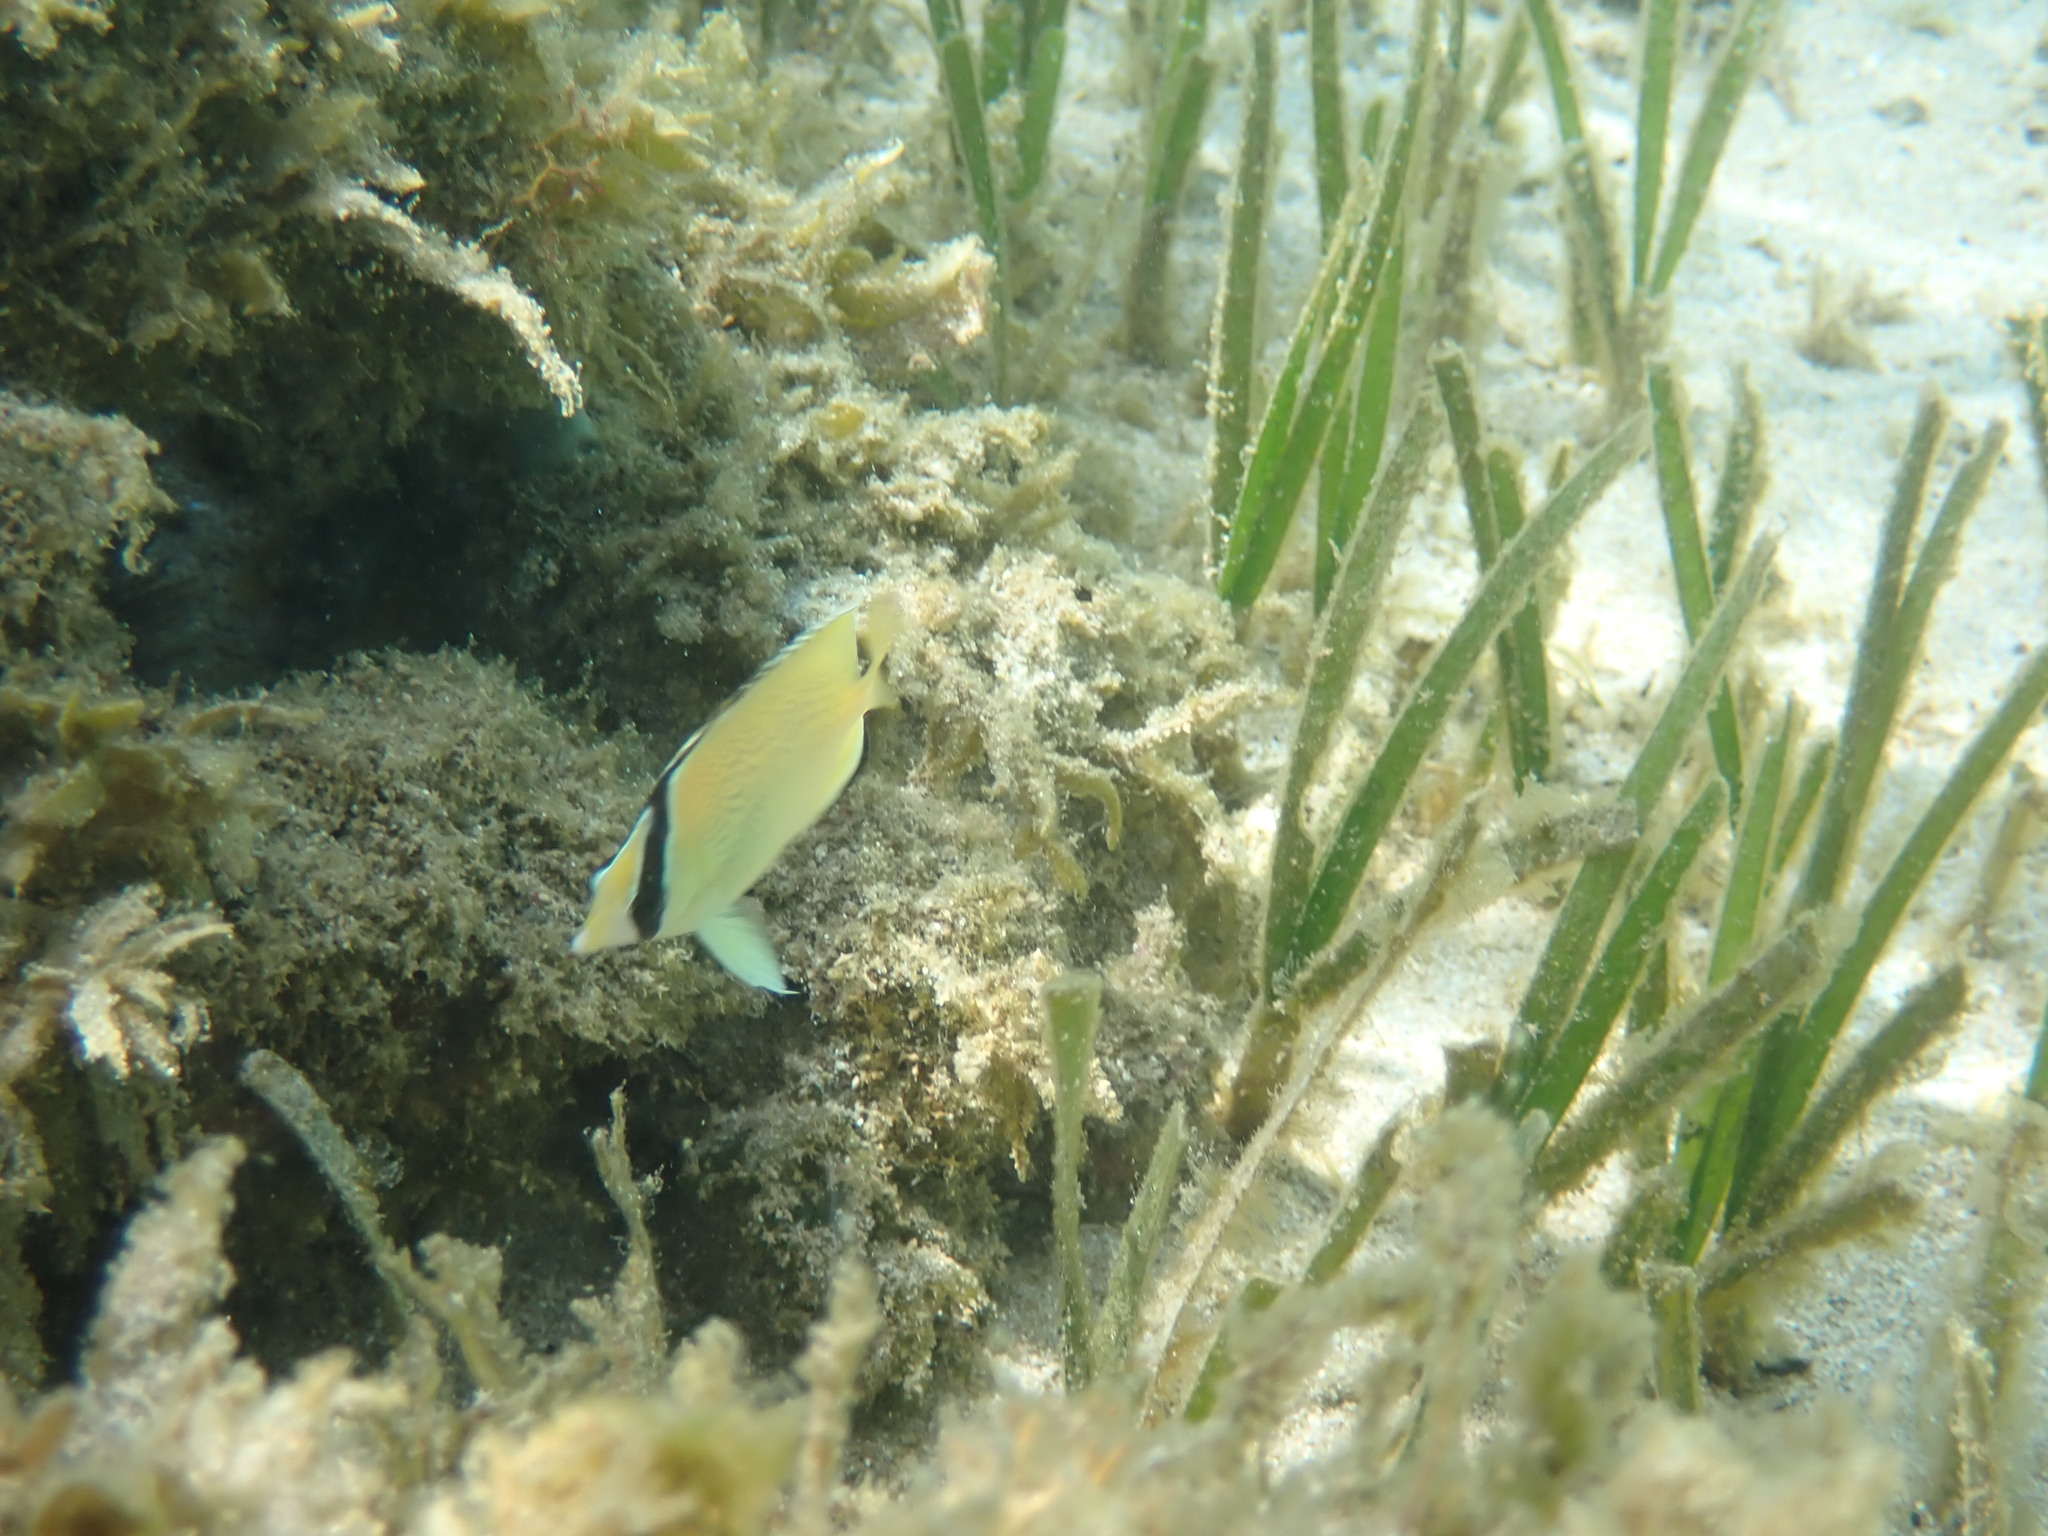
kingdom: Animalia
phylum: Chordata
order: Perciformes
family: Chaetodontidae
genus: Chaetodon
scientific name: Chaetodon citrinellus
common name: Speckled butterflyfish
